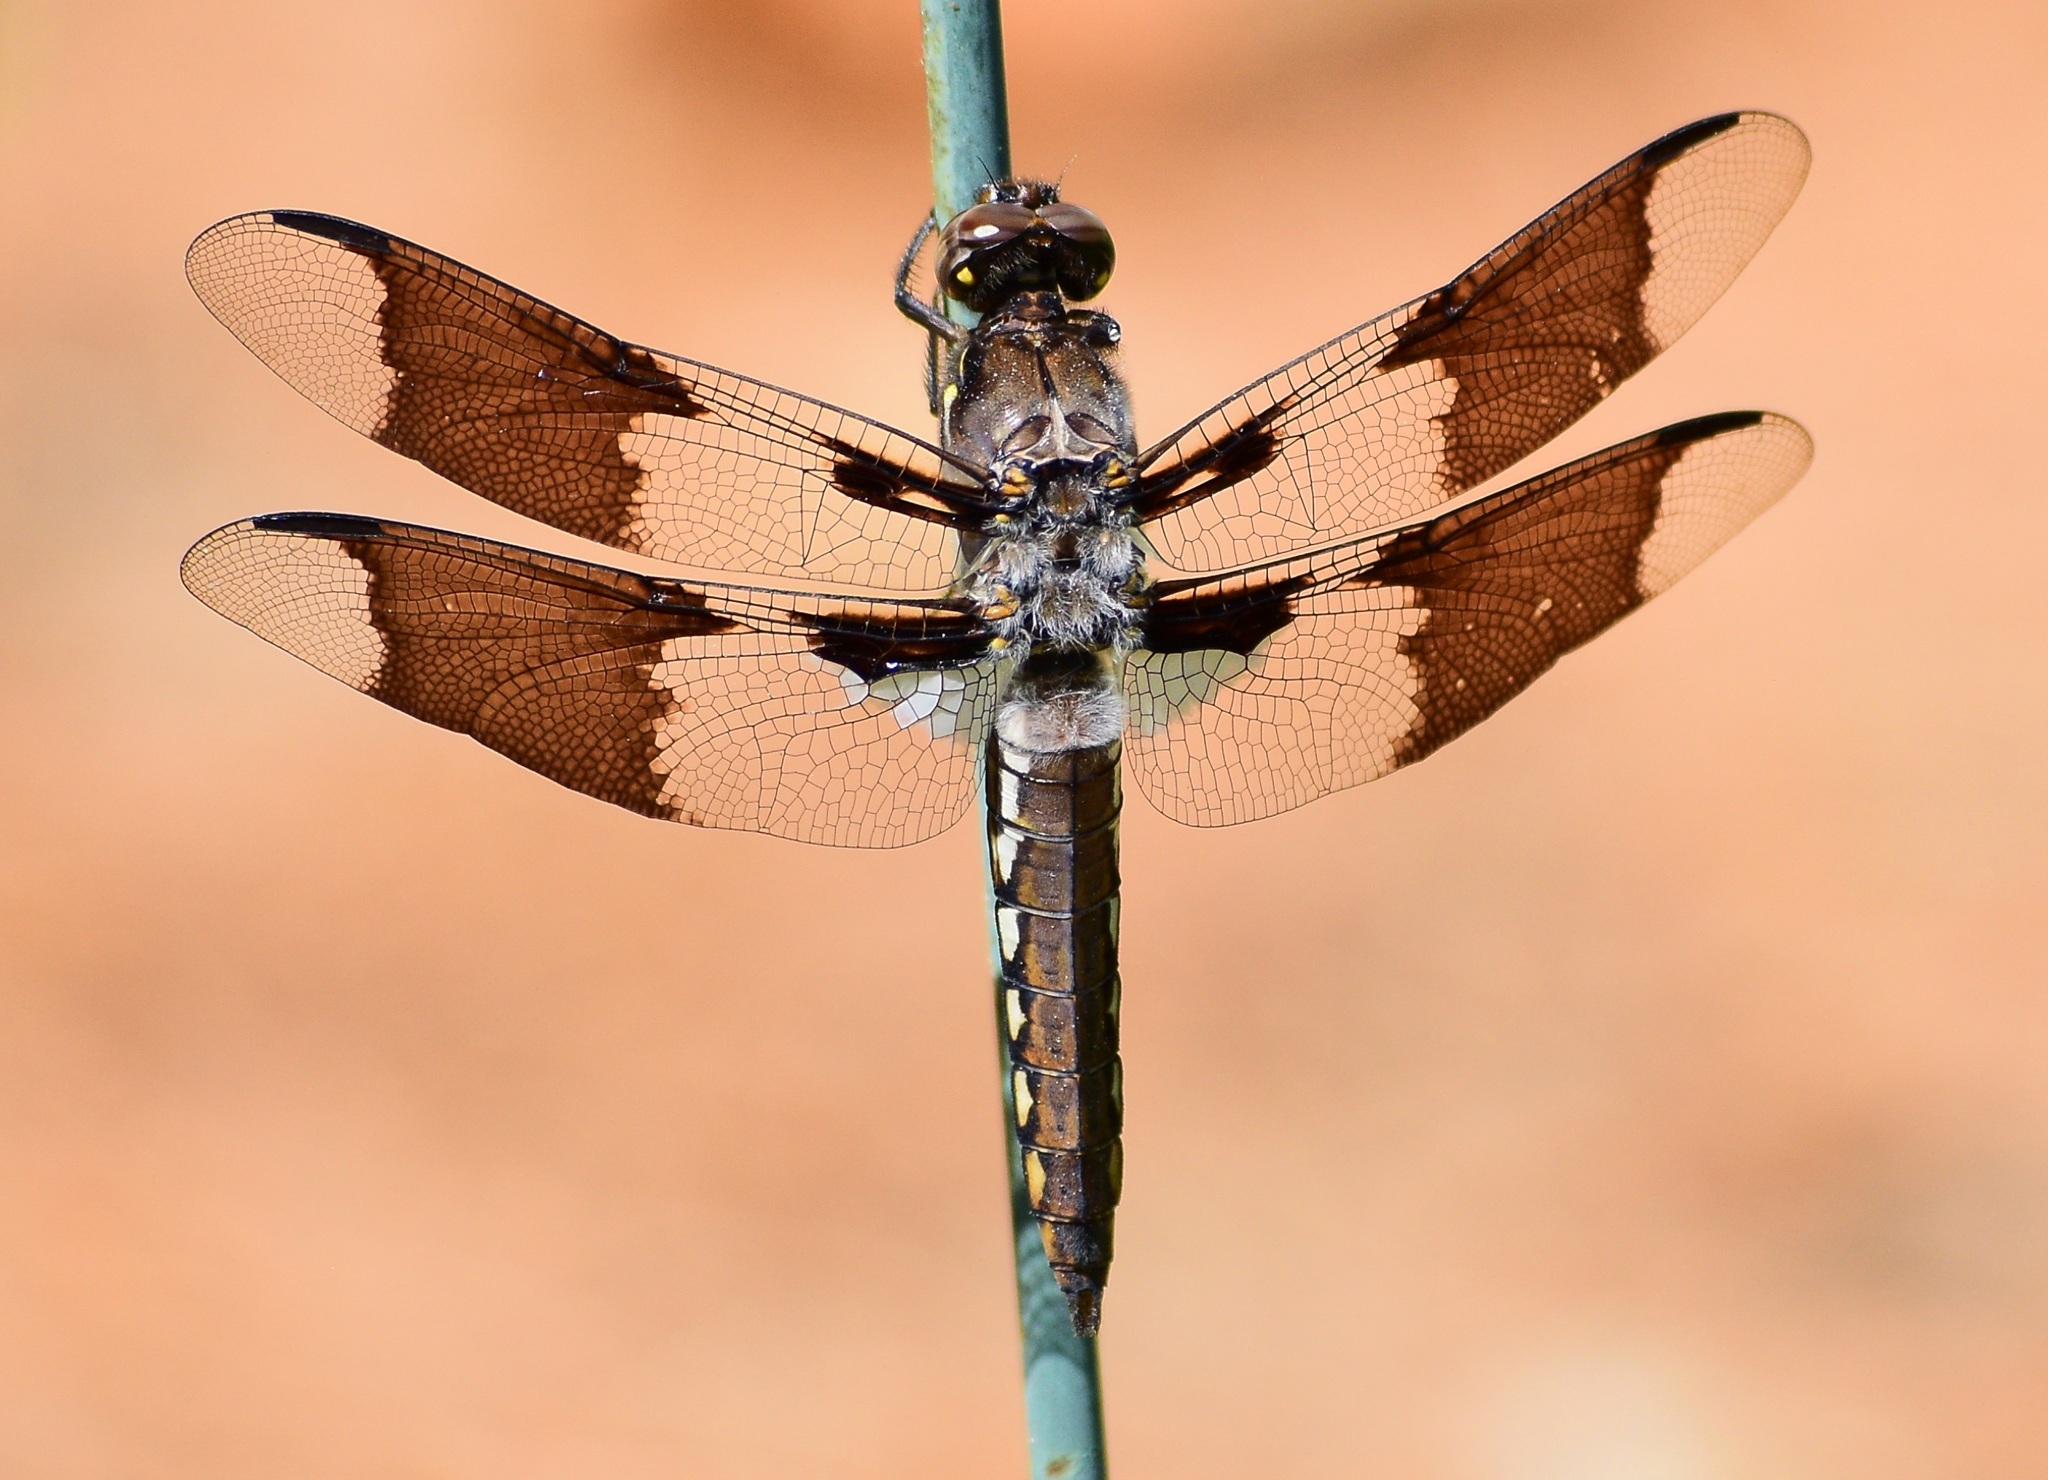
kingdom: Animalia
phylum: Arthropoda
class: Insecta
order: Odonata
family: Libellulidae
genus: Plathemis
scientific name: Plathemis lydia
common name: Common whitetail
